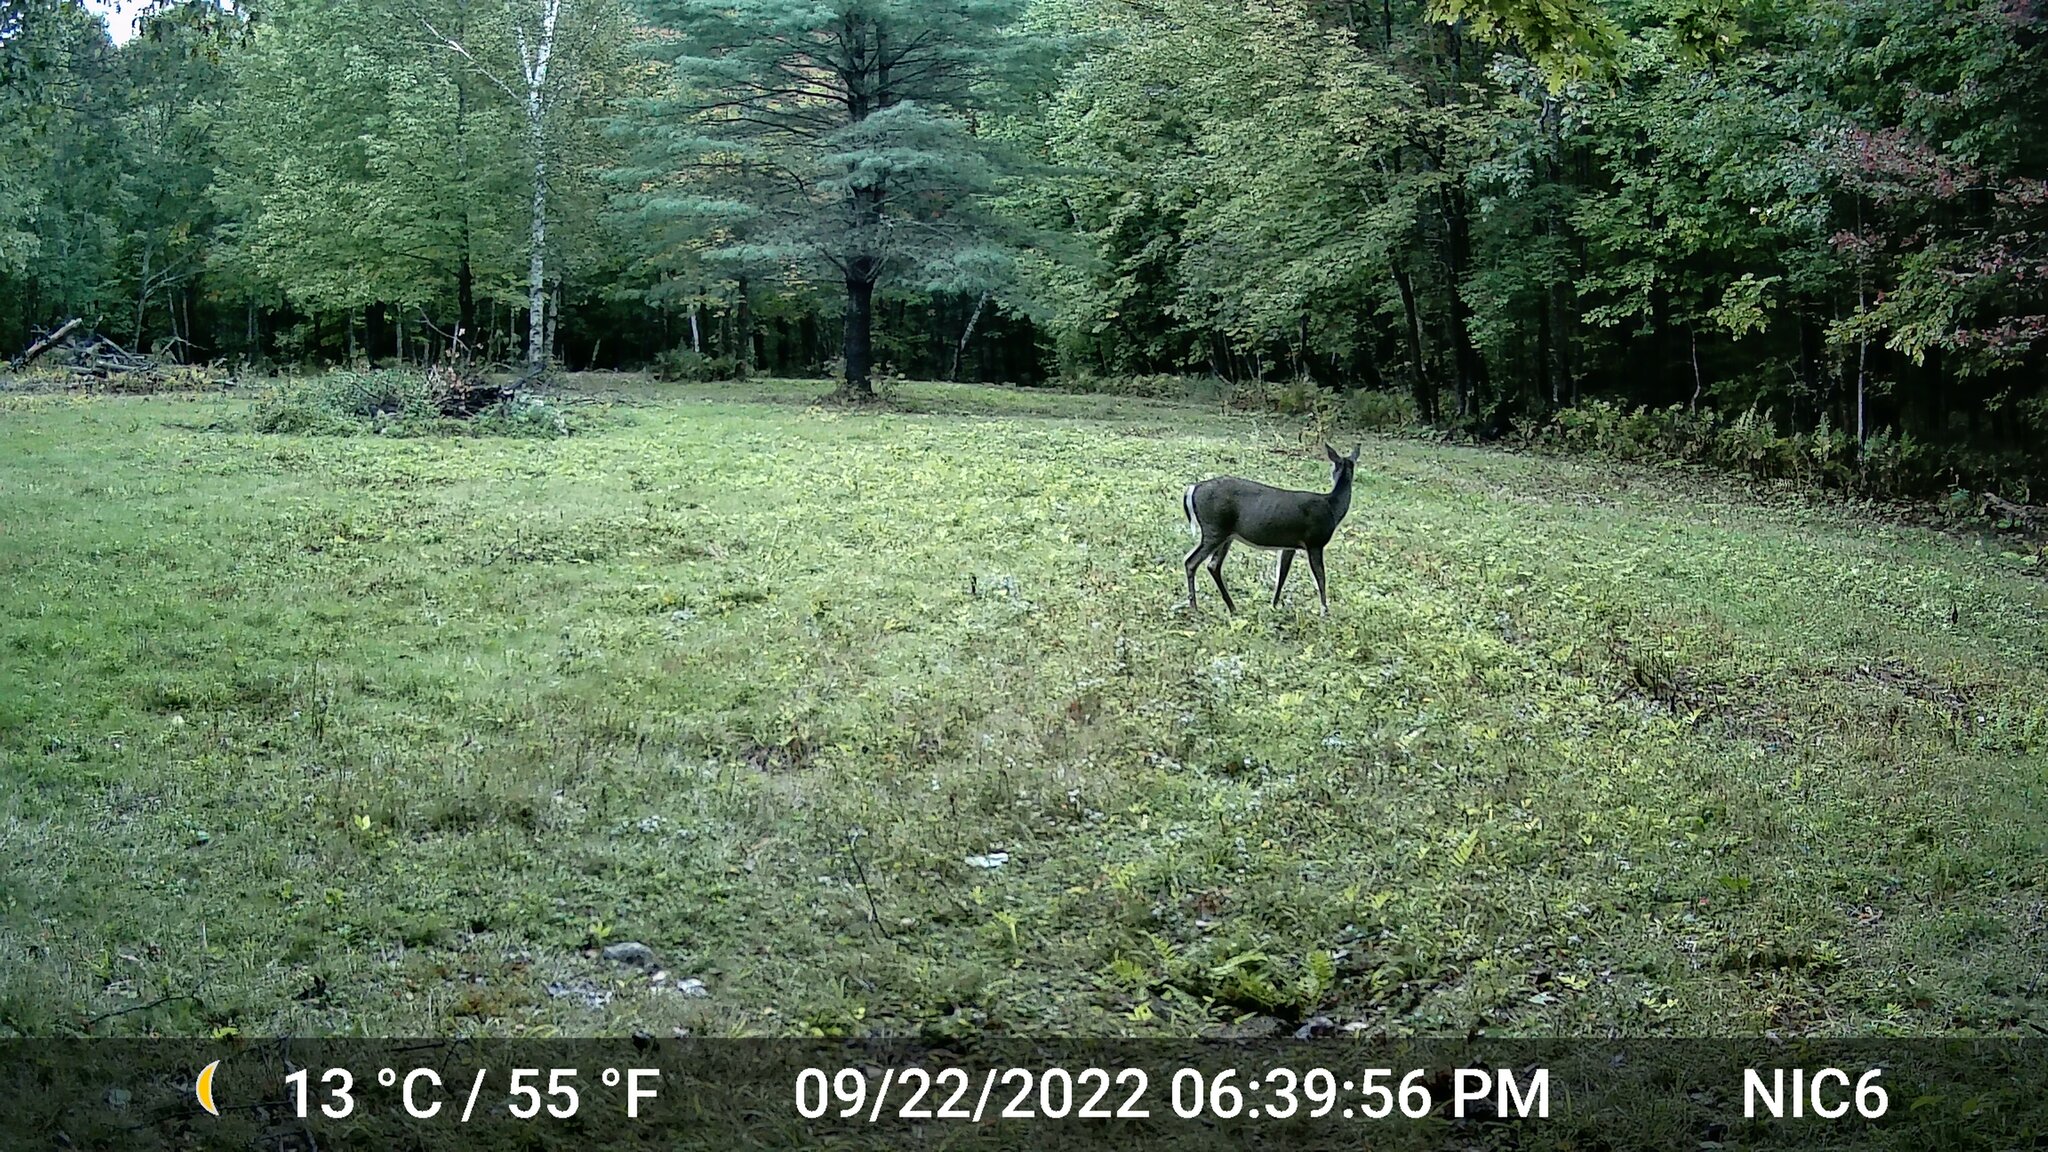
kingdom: Animalia
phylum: Chordata
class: Mammalia
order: Artiodactyla
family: Cervidae
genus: Odocoileus
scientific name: Odocoileus virginianus
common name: White-tailed deer
